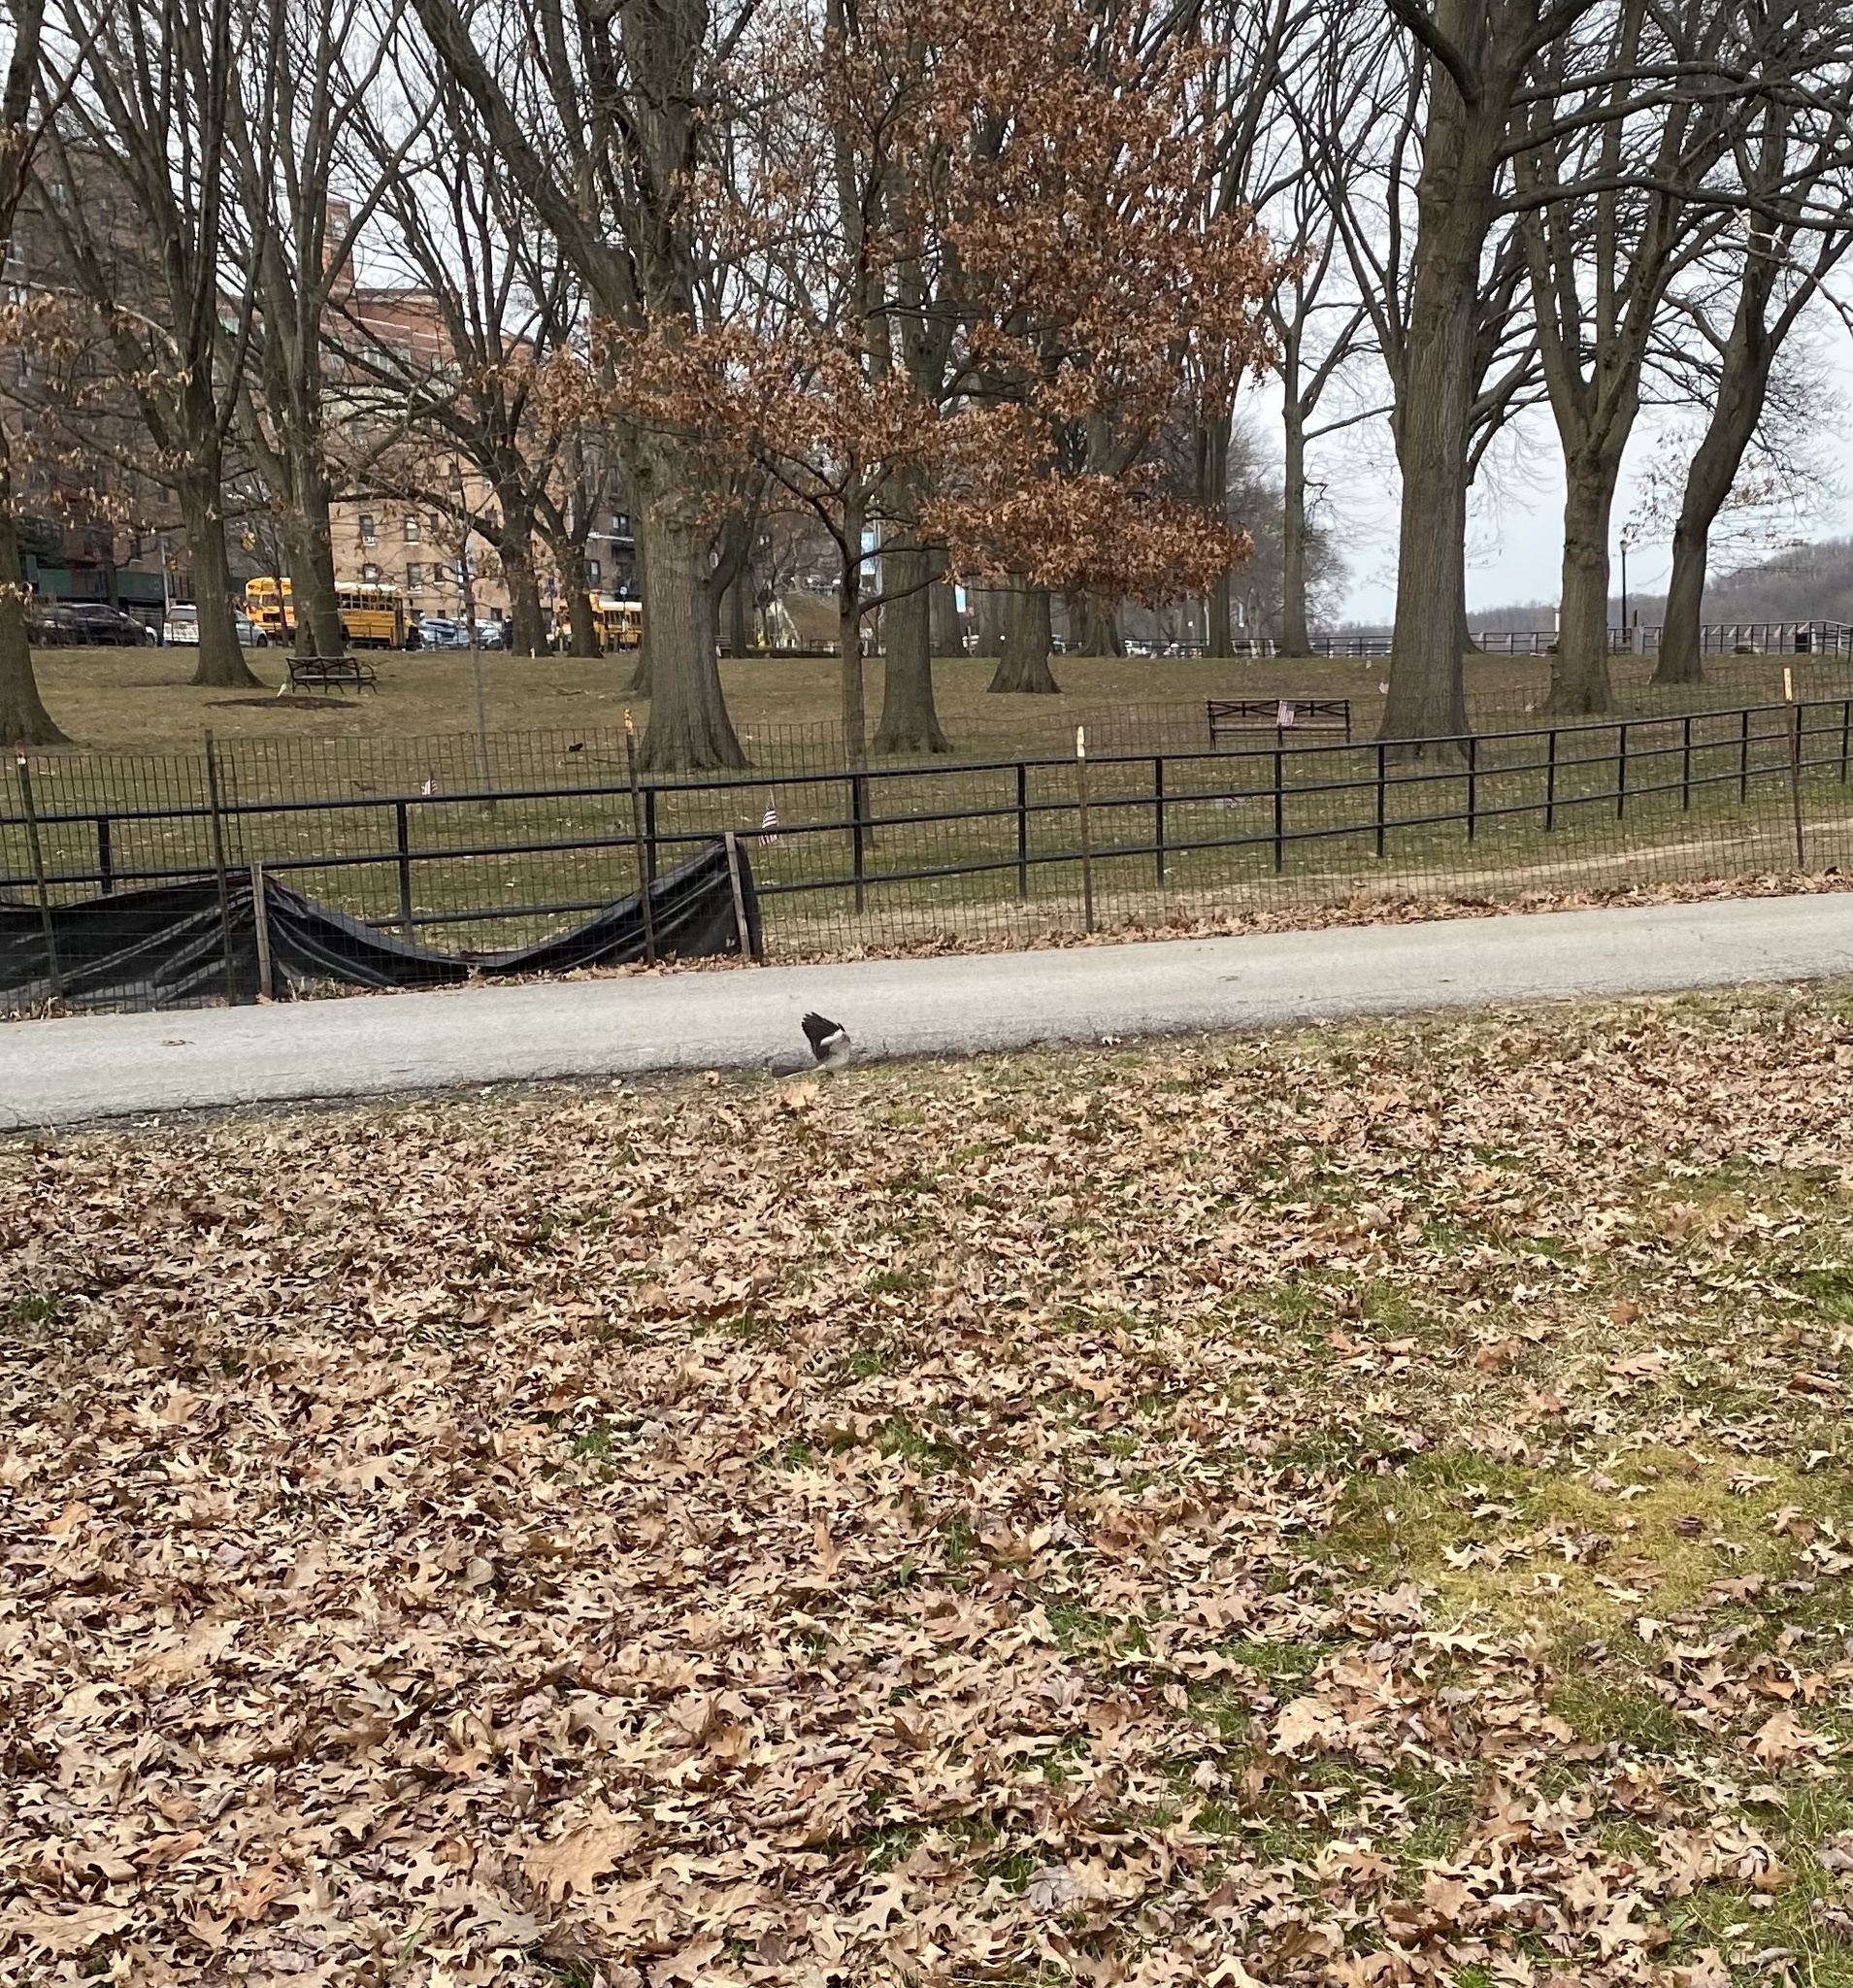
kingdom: Animalia
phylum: Chordata
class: Aves
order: Passeriformes
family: Mimidae
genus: Mimus
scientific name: Mimus polyglottos
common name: Northern mockingbird
